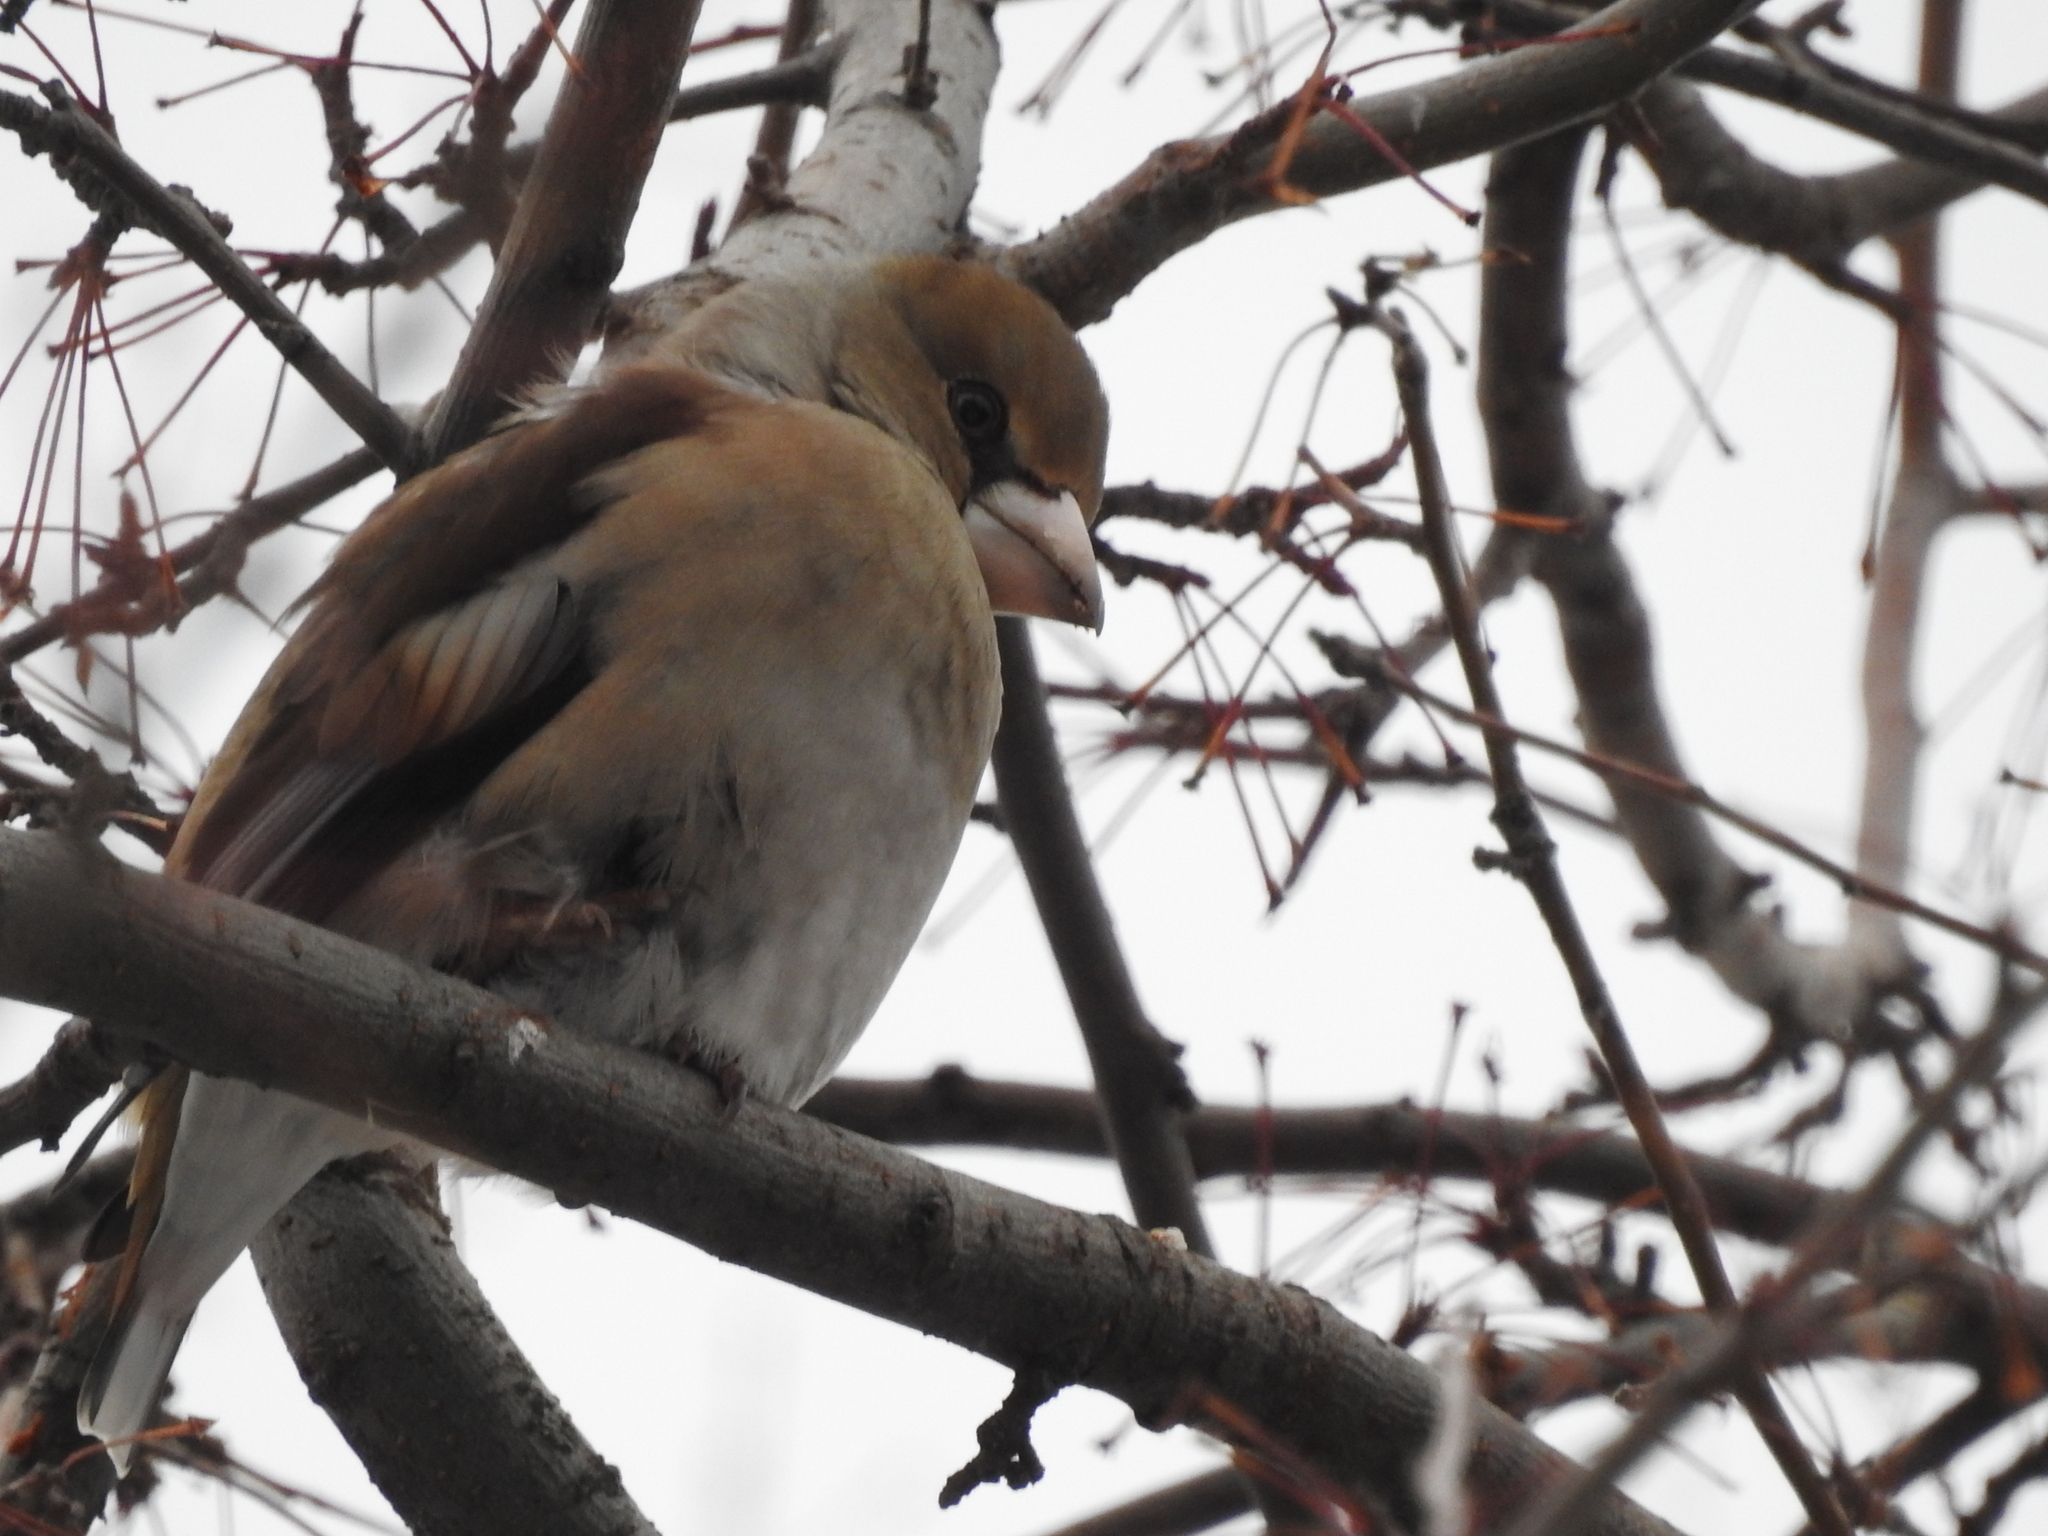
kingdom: Animalia
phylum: Chordata
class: Aves
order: Passeriformes
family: Fringillidae
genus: Coccothraustes
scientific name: Coccothraustes coccothraustes
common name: Hawfinch
